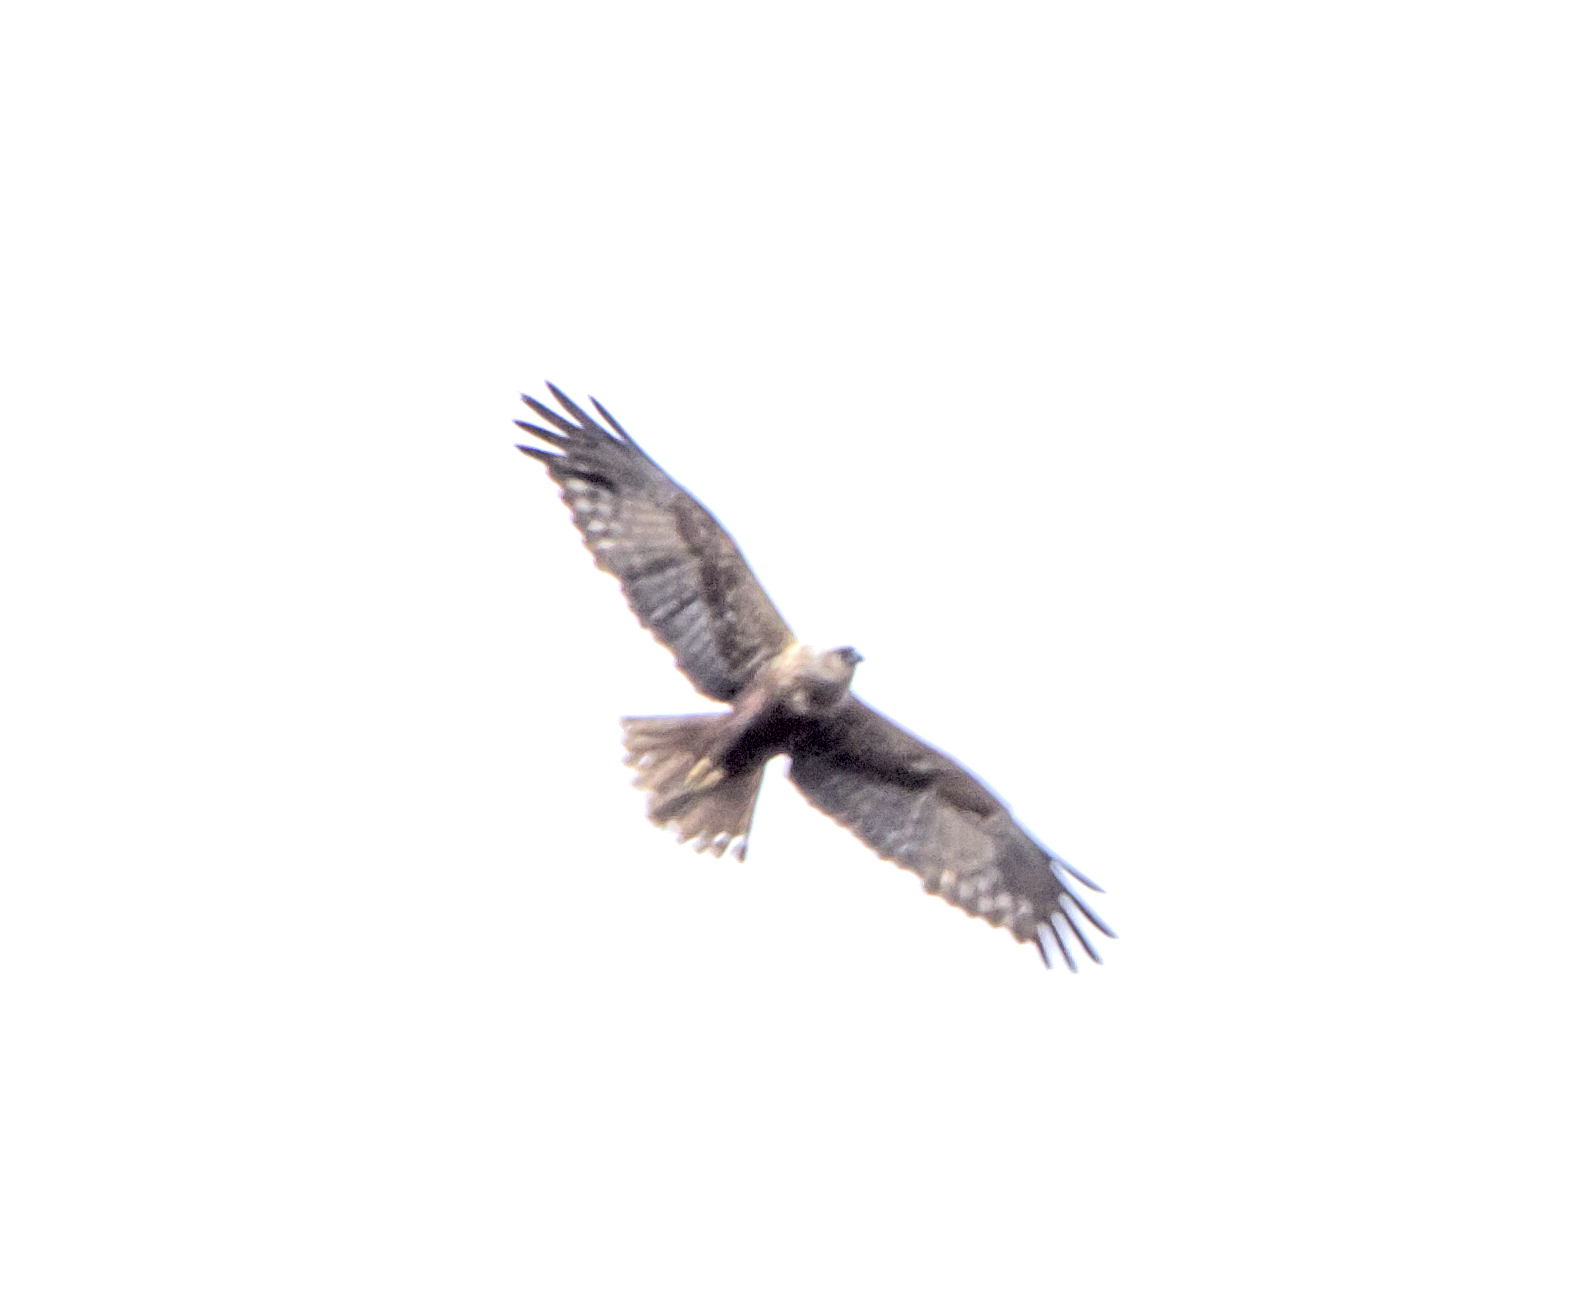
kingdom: Animalia
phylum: Chordata
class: Aves
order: Accipitriformes
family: Accipitridae
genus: Circus
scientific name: Circus aeruginosus
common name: Western marsh harrier
